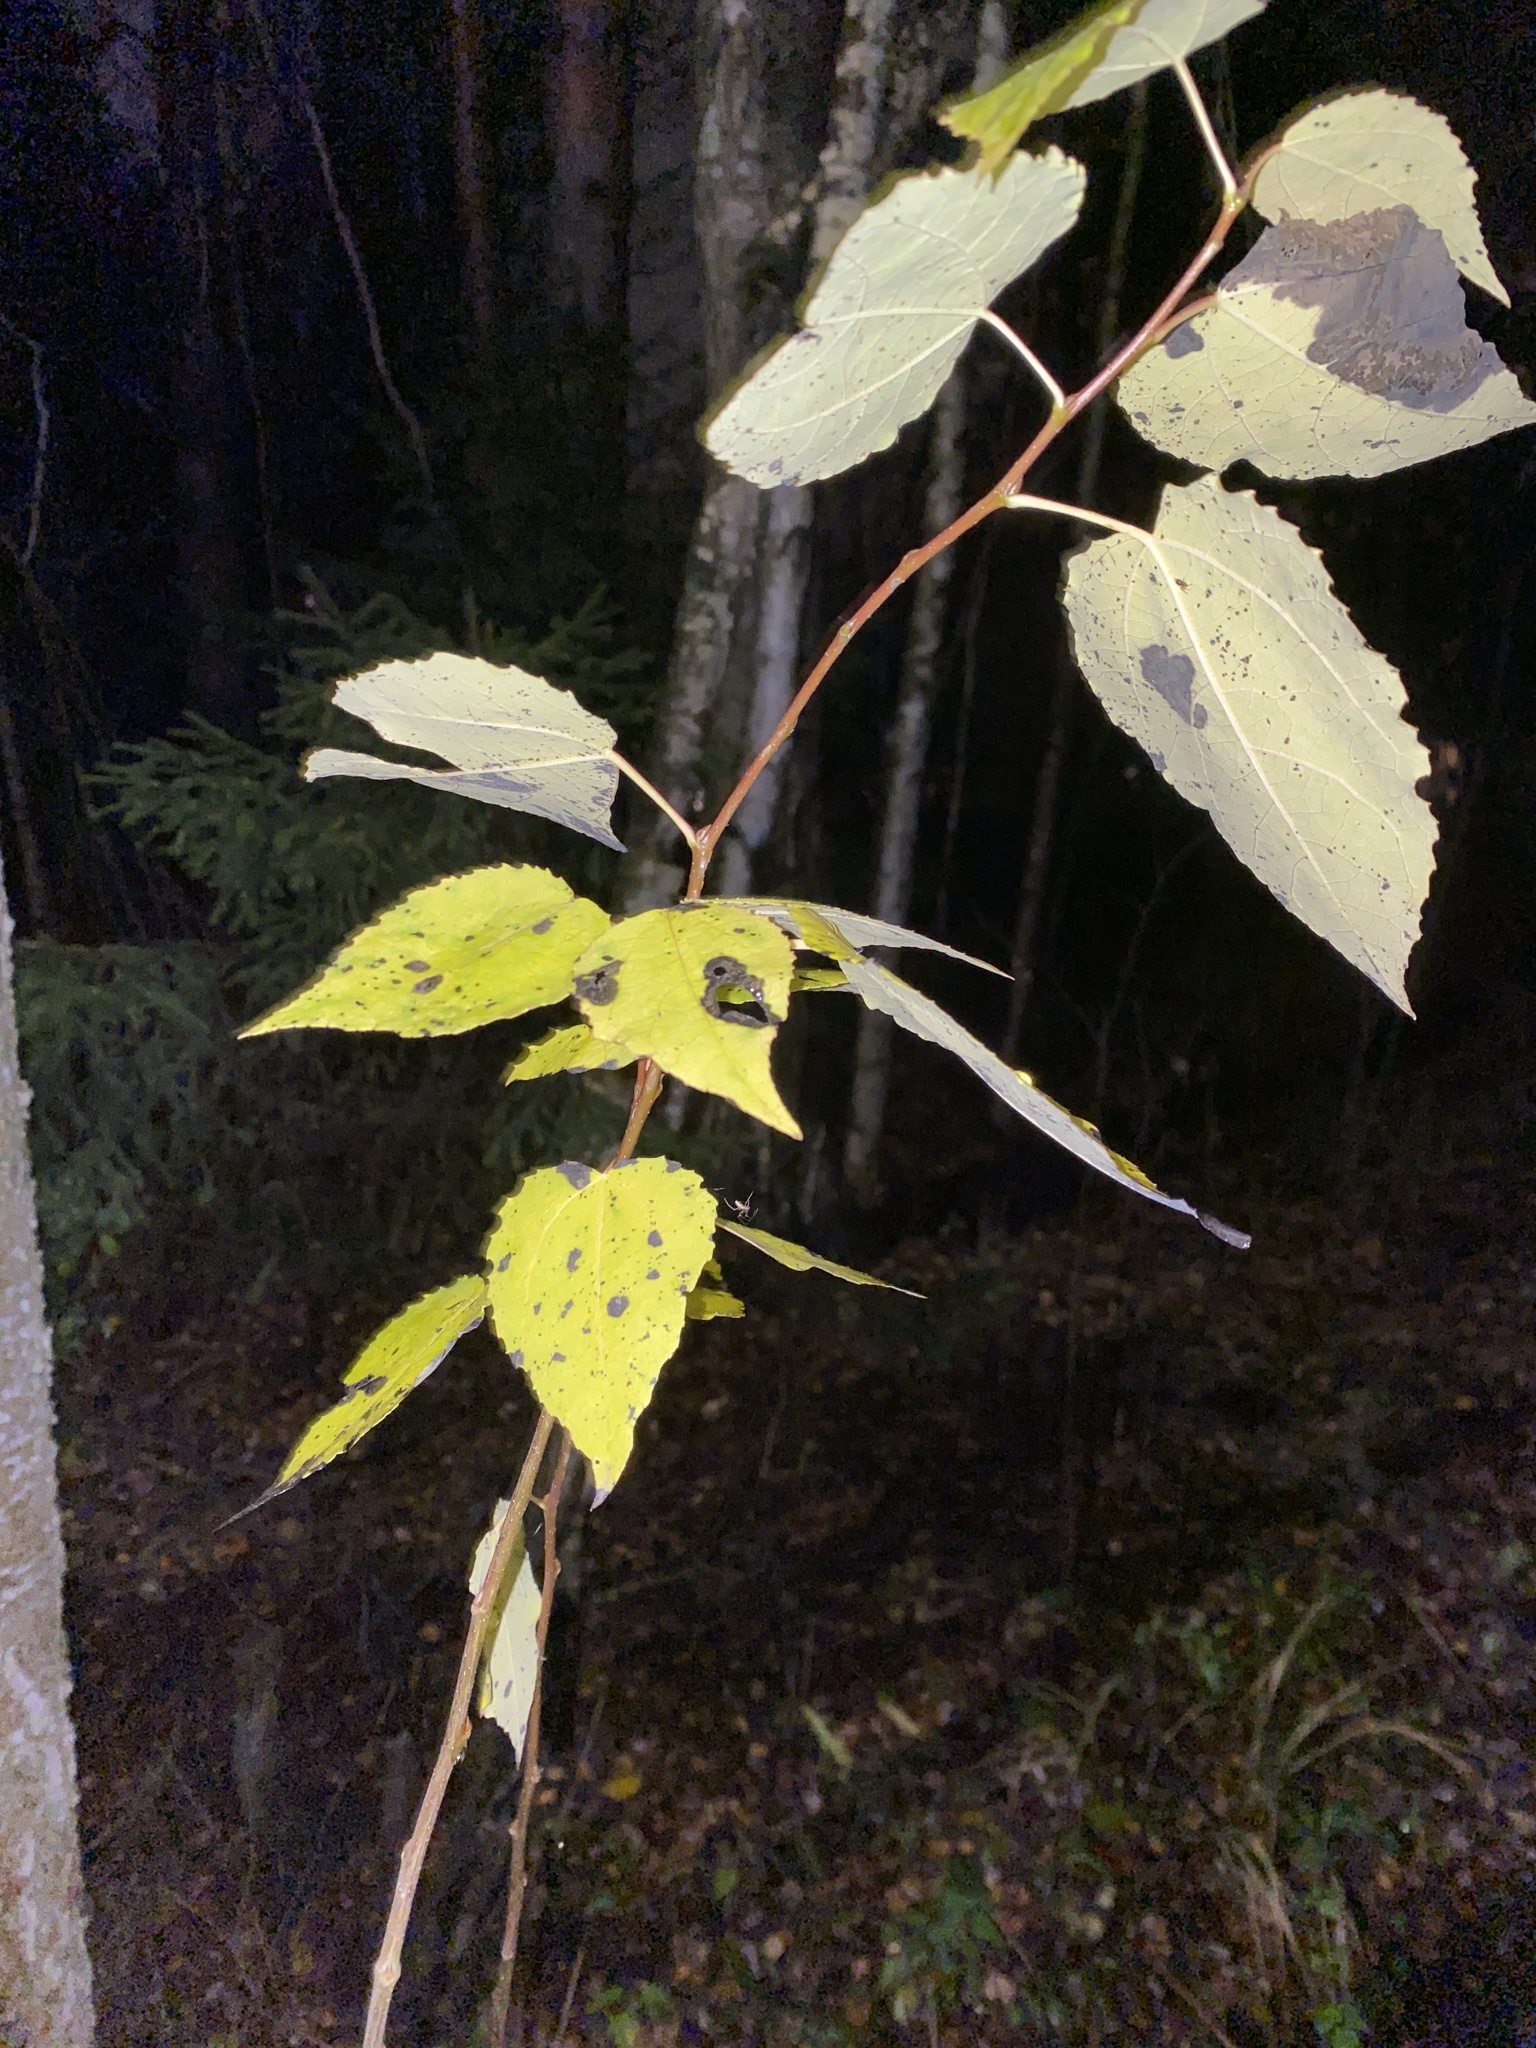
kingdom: Plantae
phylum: Tracheophyta
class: Magnoliopsida
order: Malpighiales
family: Salicaceae
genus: Populus
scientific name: Populus tremula
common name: European aspen
